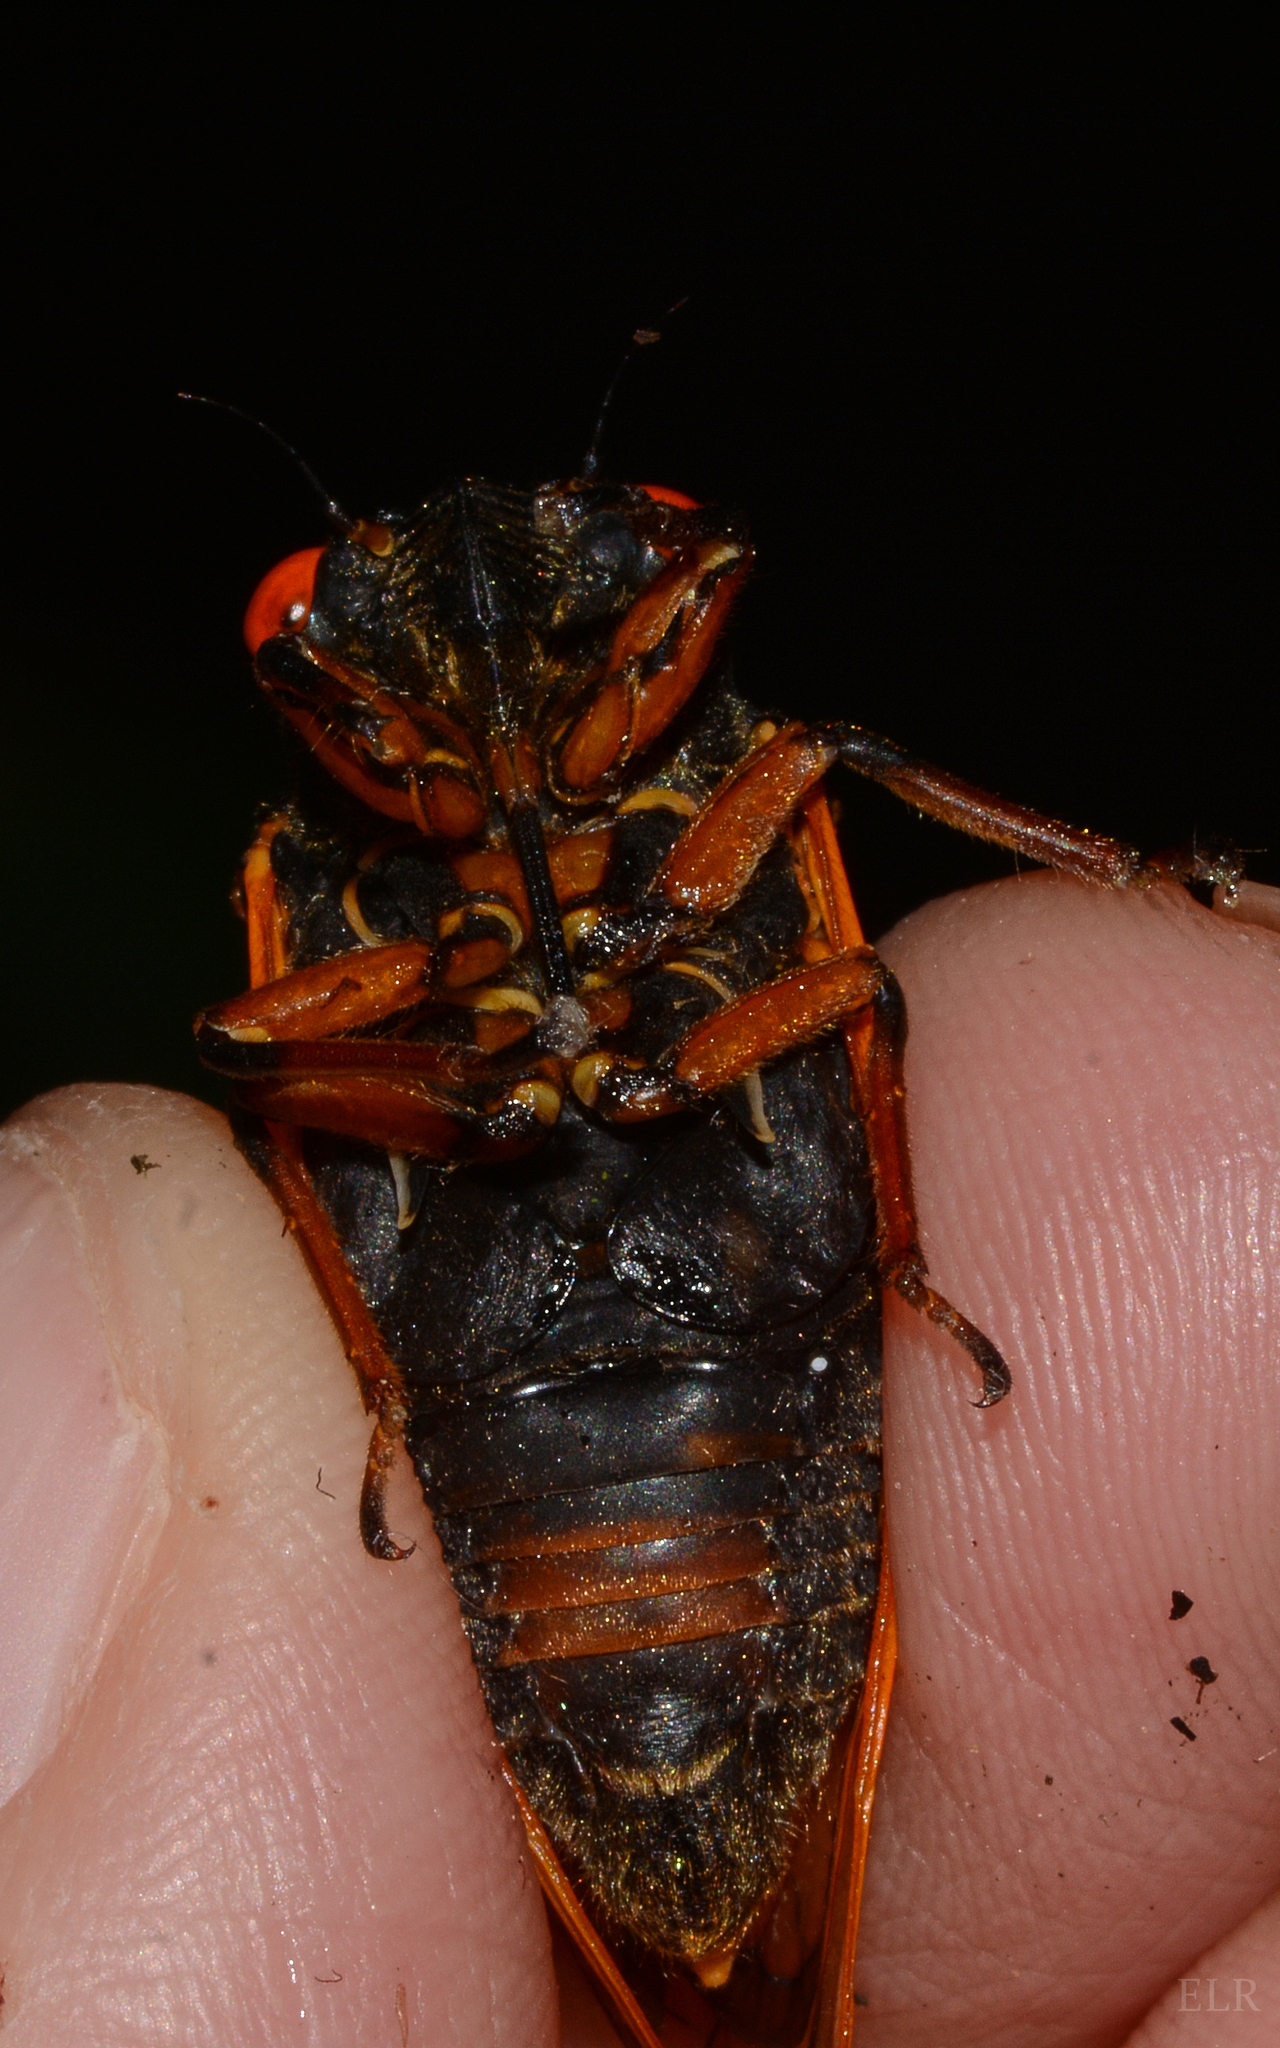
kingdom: Animalia
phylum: Arthropoda
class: Insecta
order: Hemiptera
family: Cicadidae
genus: Magicicada
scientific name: Magicicada cassini
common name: Cassin's 17-year cicada
